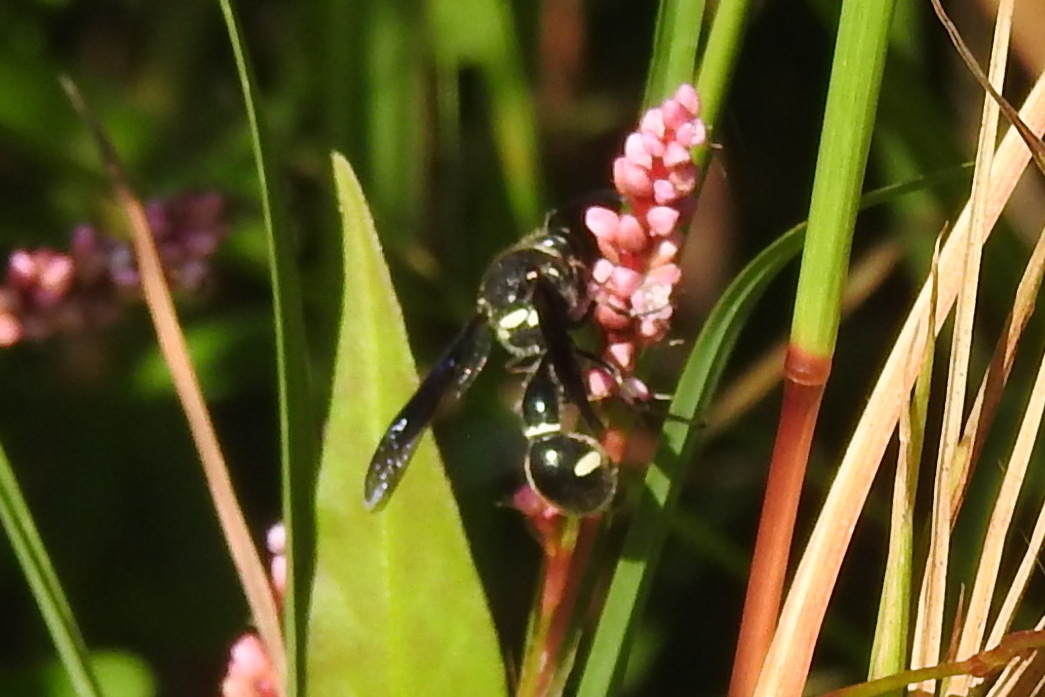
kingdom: Animalia
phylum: Arthropoda
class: Insecta
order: Hymenoptera
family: Vespidae
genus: Eumenes
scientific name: Eumenes fraternus
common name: Fraternal potter wasp
